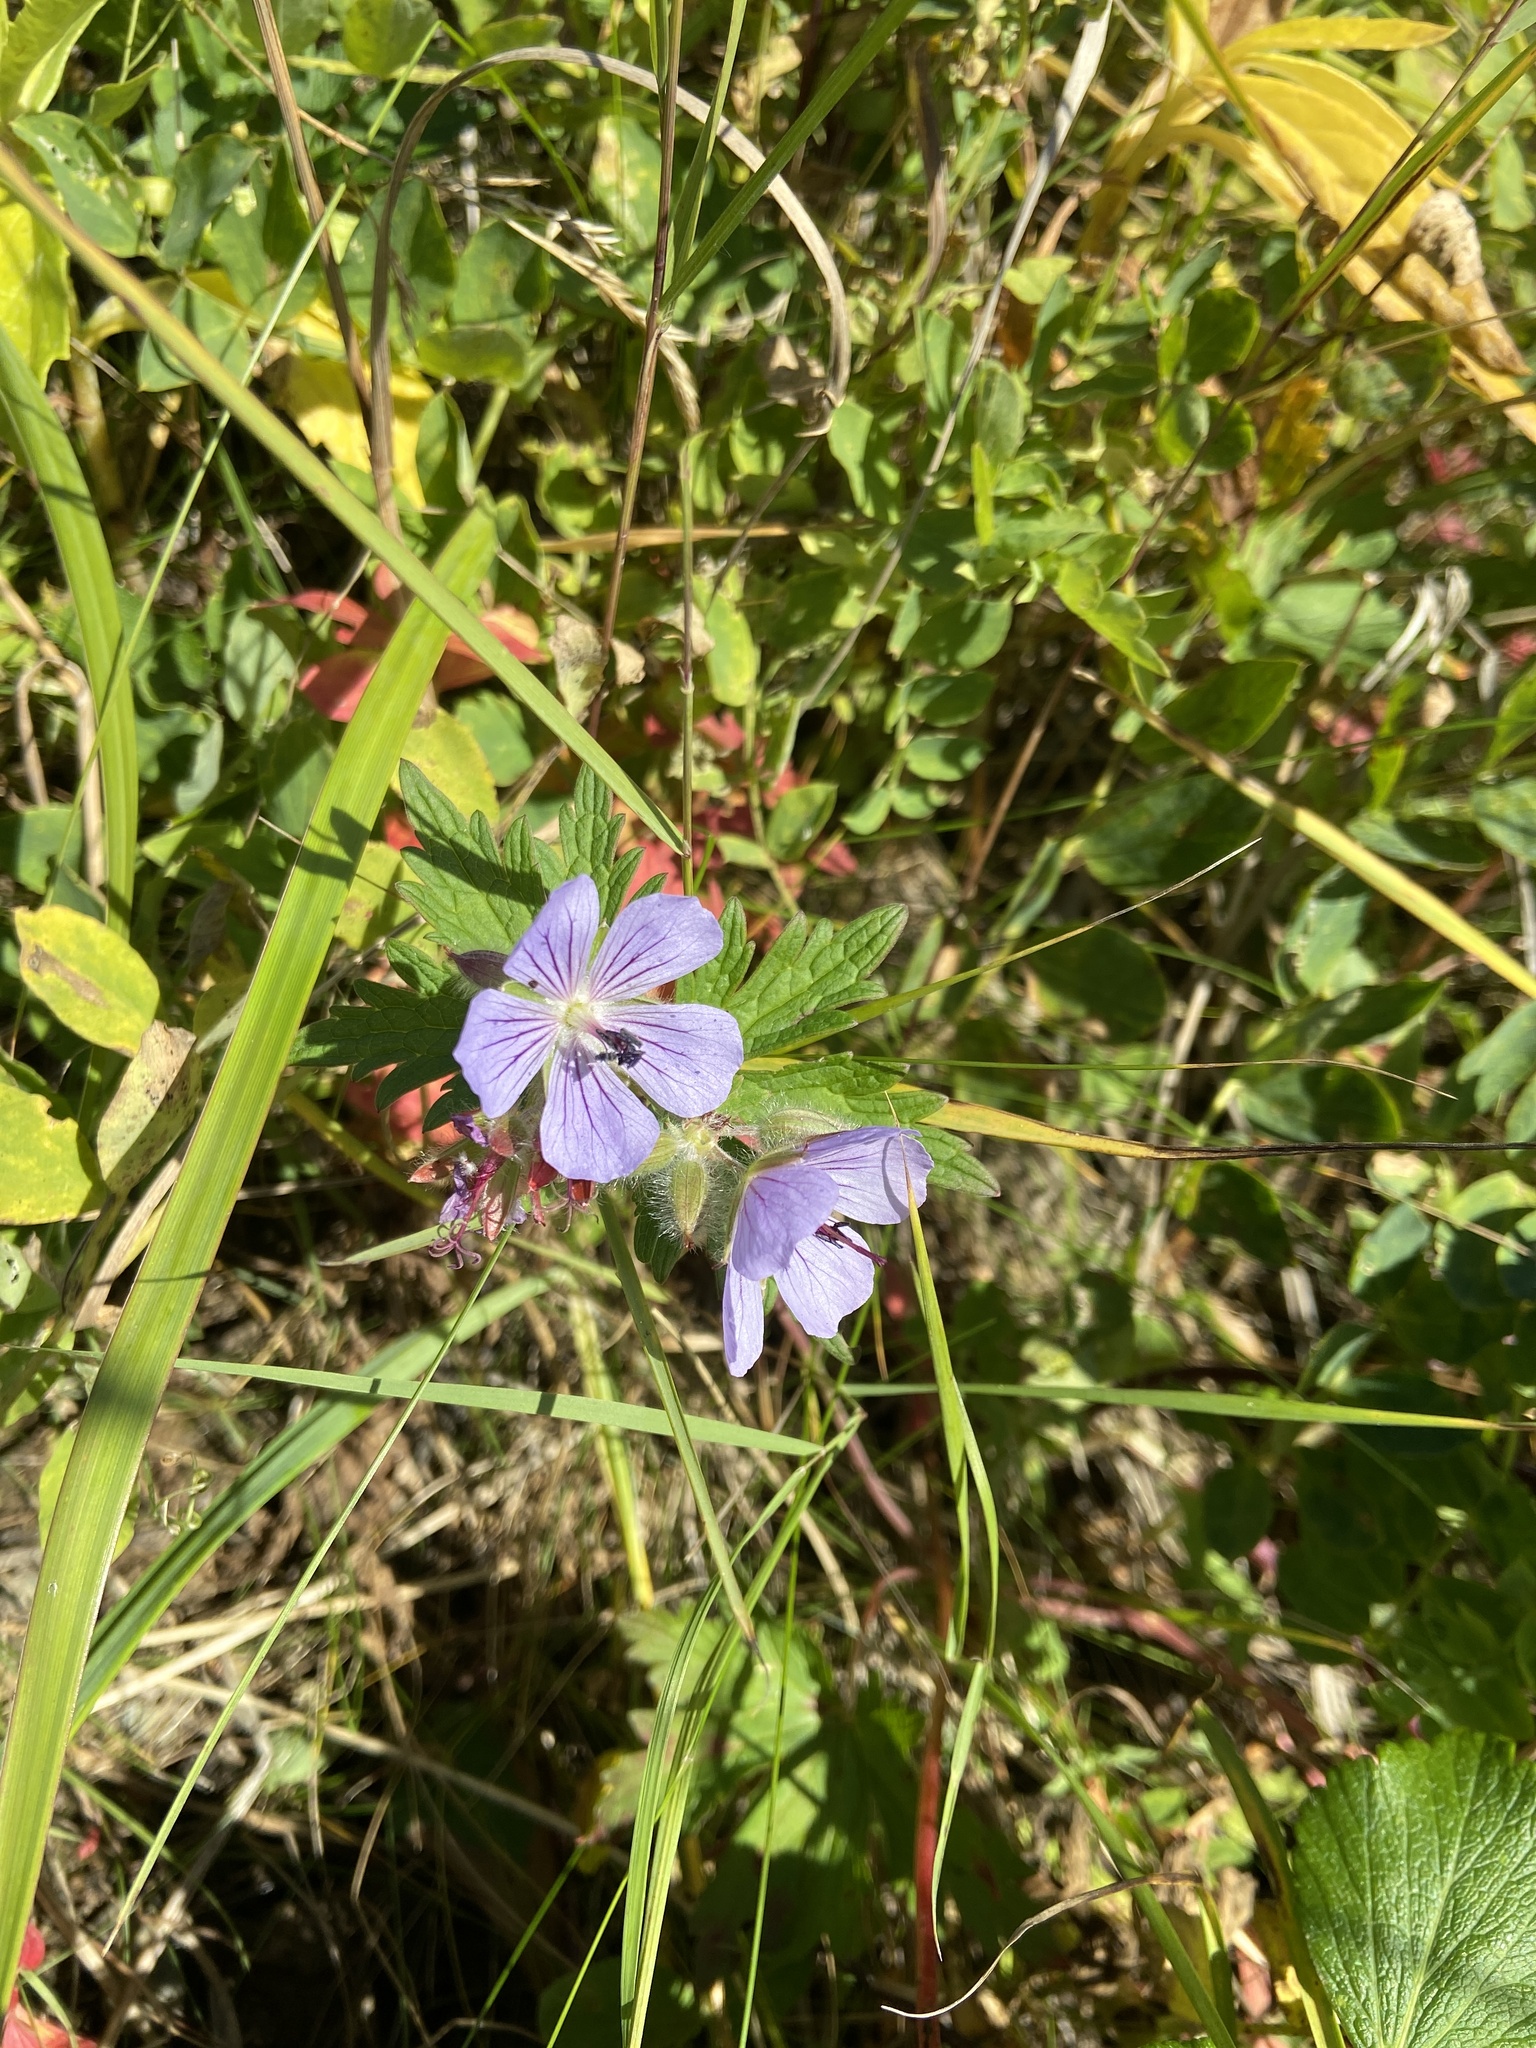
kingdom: Plantae
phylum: Tracheophyta
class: Magnoliopsida
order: Geraniales
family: Geraniaceae
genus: Geranium
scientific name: Geranium erianthum
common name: Northern crane's-bill
